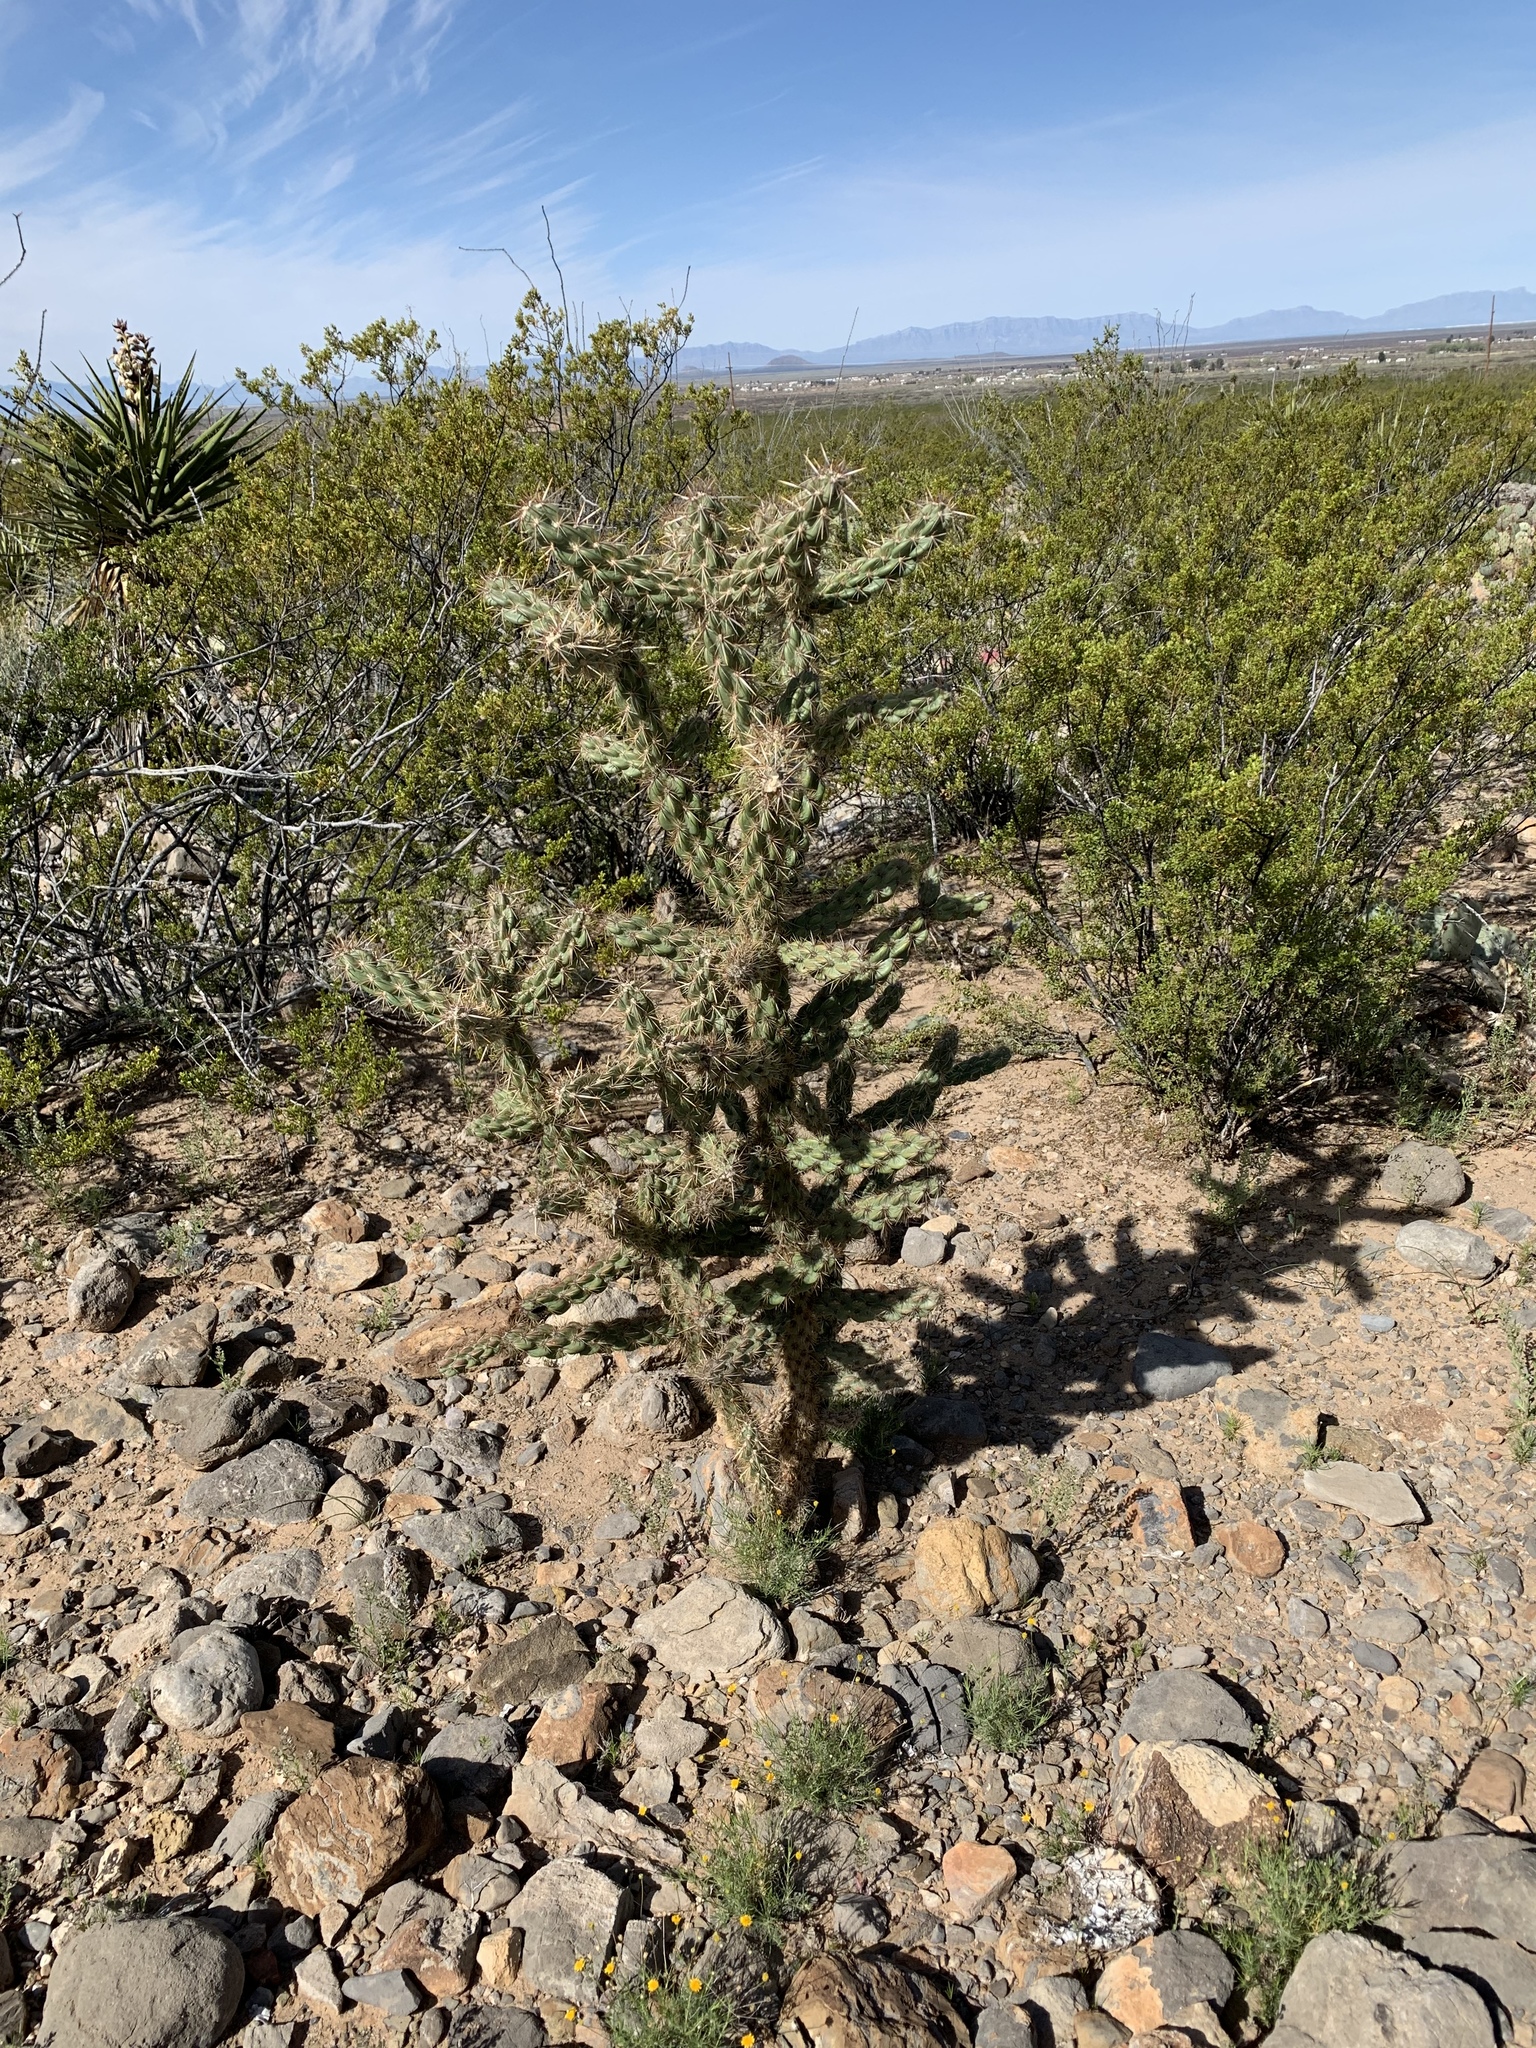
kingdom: Plantae
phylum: Tracheophyta
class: Magnoliopsida
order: Caryophyllales
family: Cactaceae
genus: Cylindropuntia
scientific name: Cylindropuntia imbricata
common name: Candelabrum cactus
